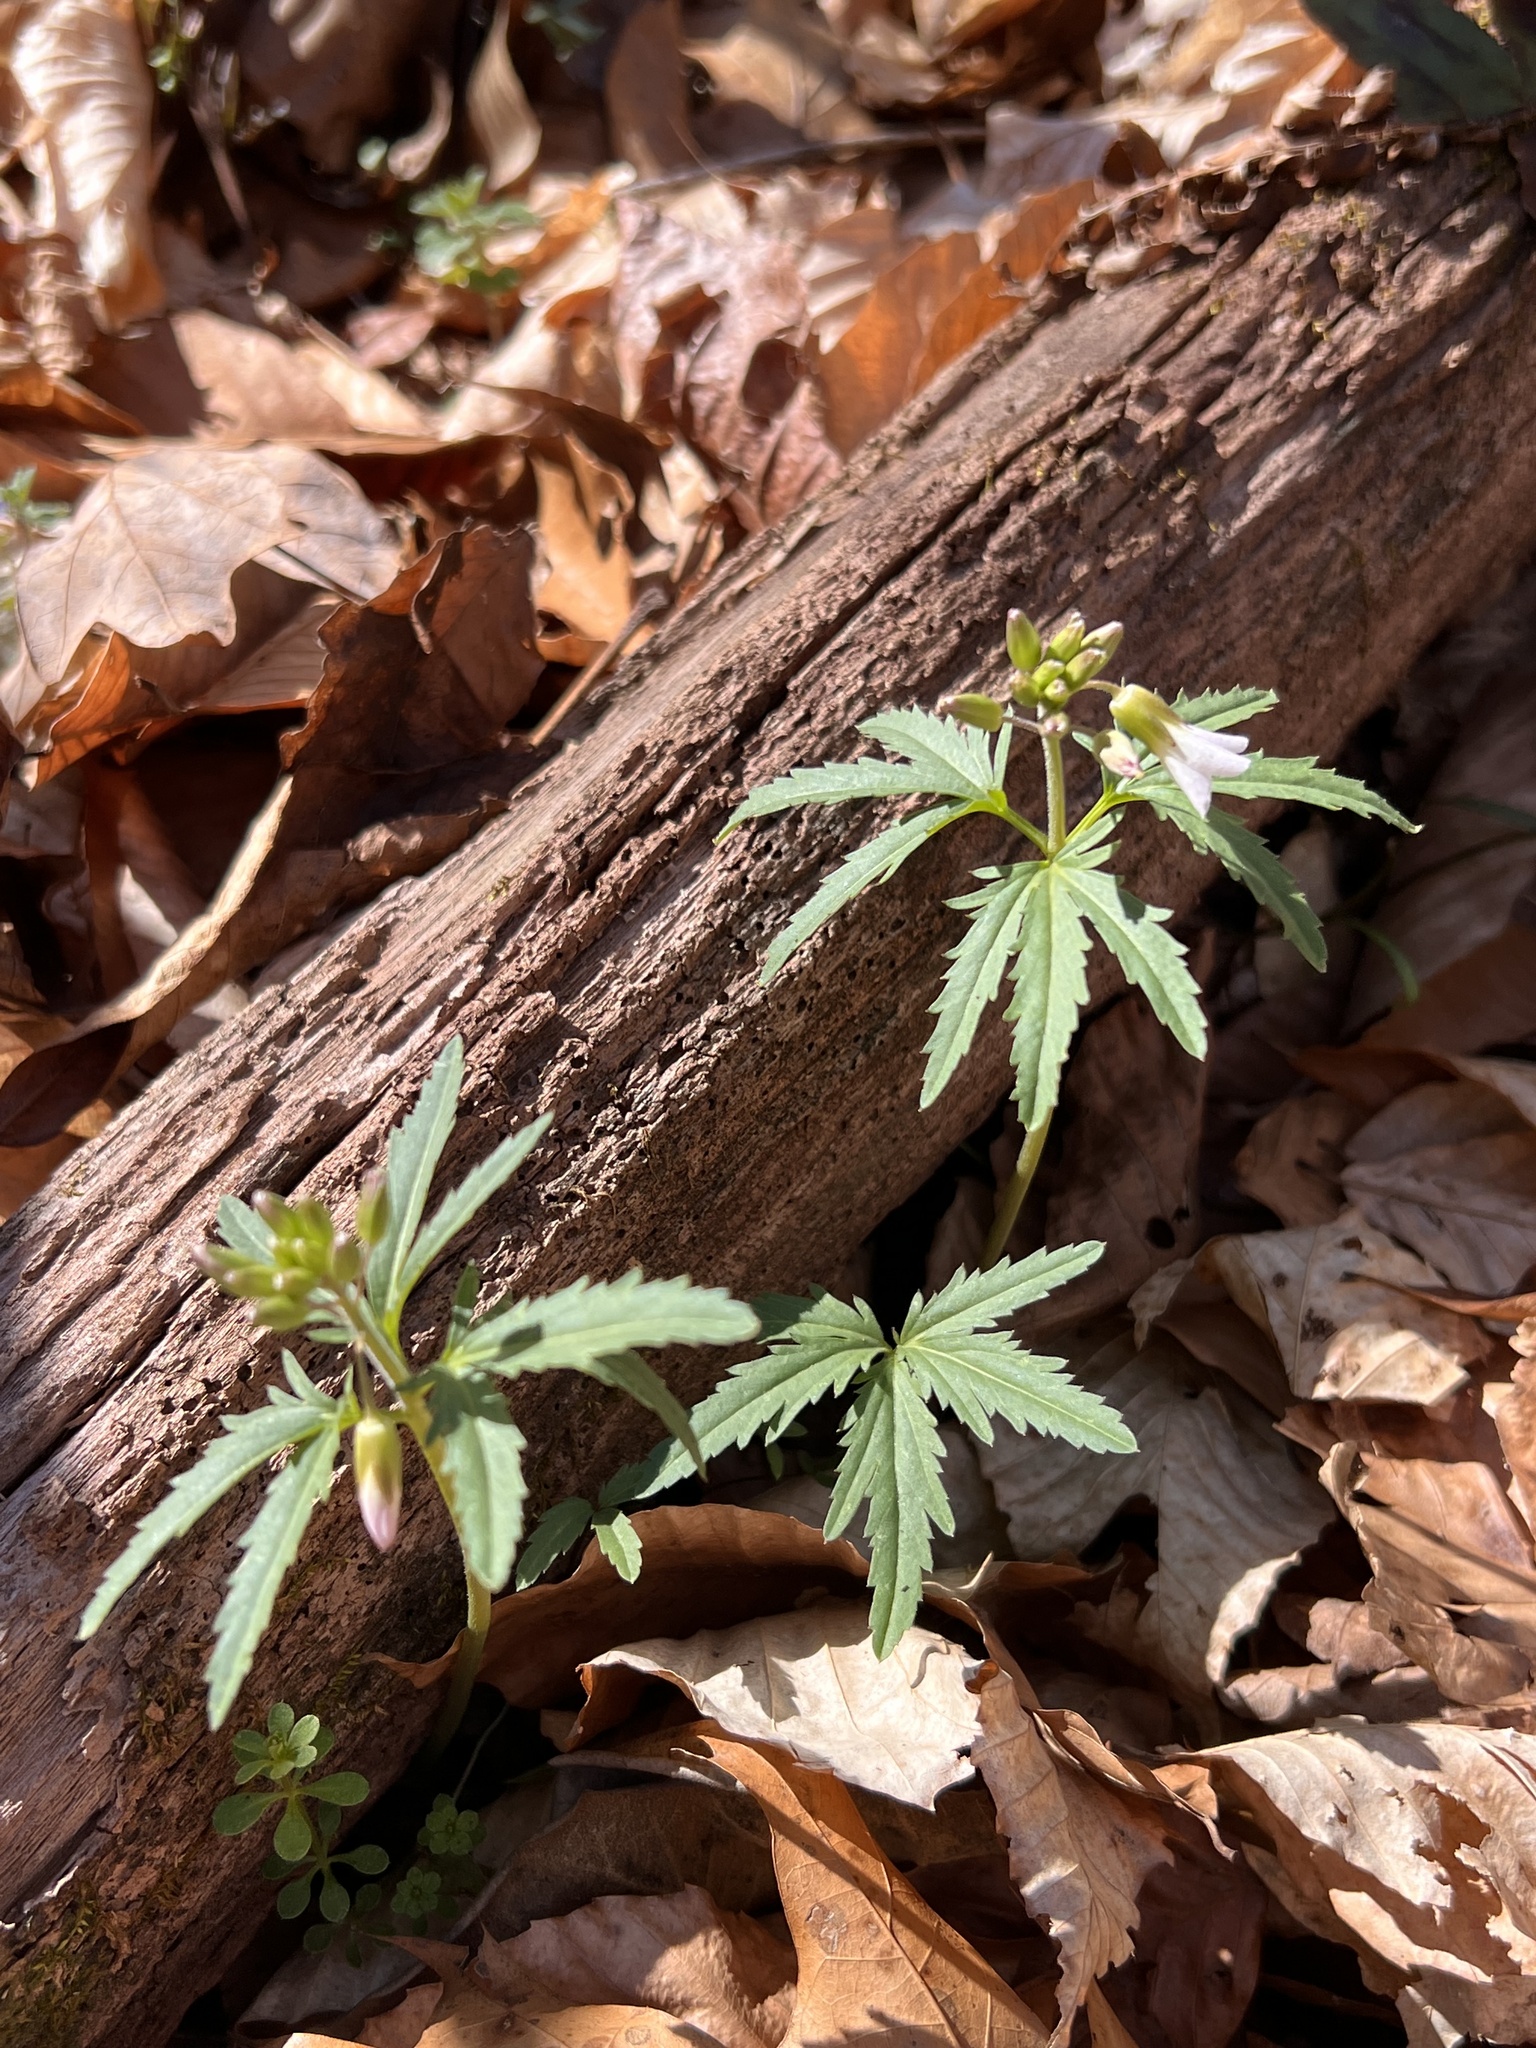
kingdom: Plantae
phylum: Tracheophyta
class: Magnoliopsida
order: Brassicales
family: Brassicaceae
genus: Cardamine
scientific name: Cardamine concatenata
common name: Cut-leaf toothcup
